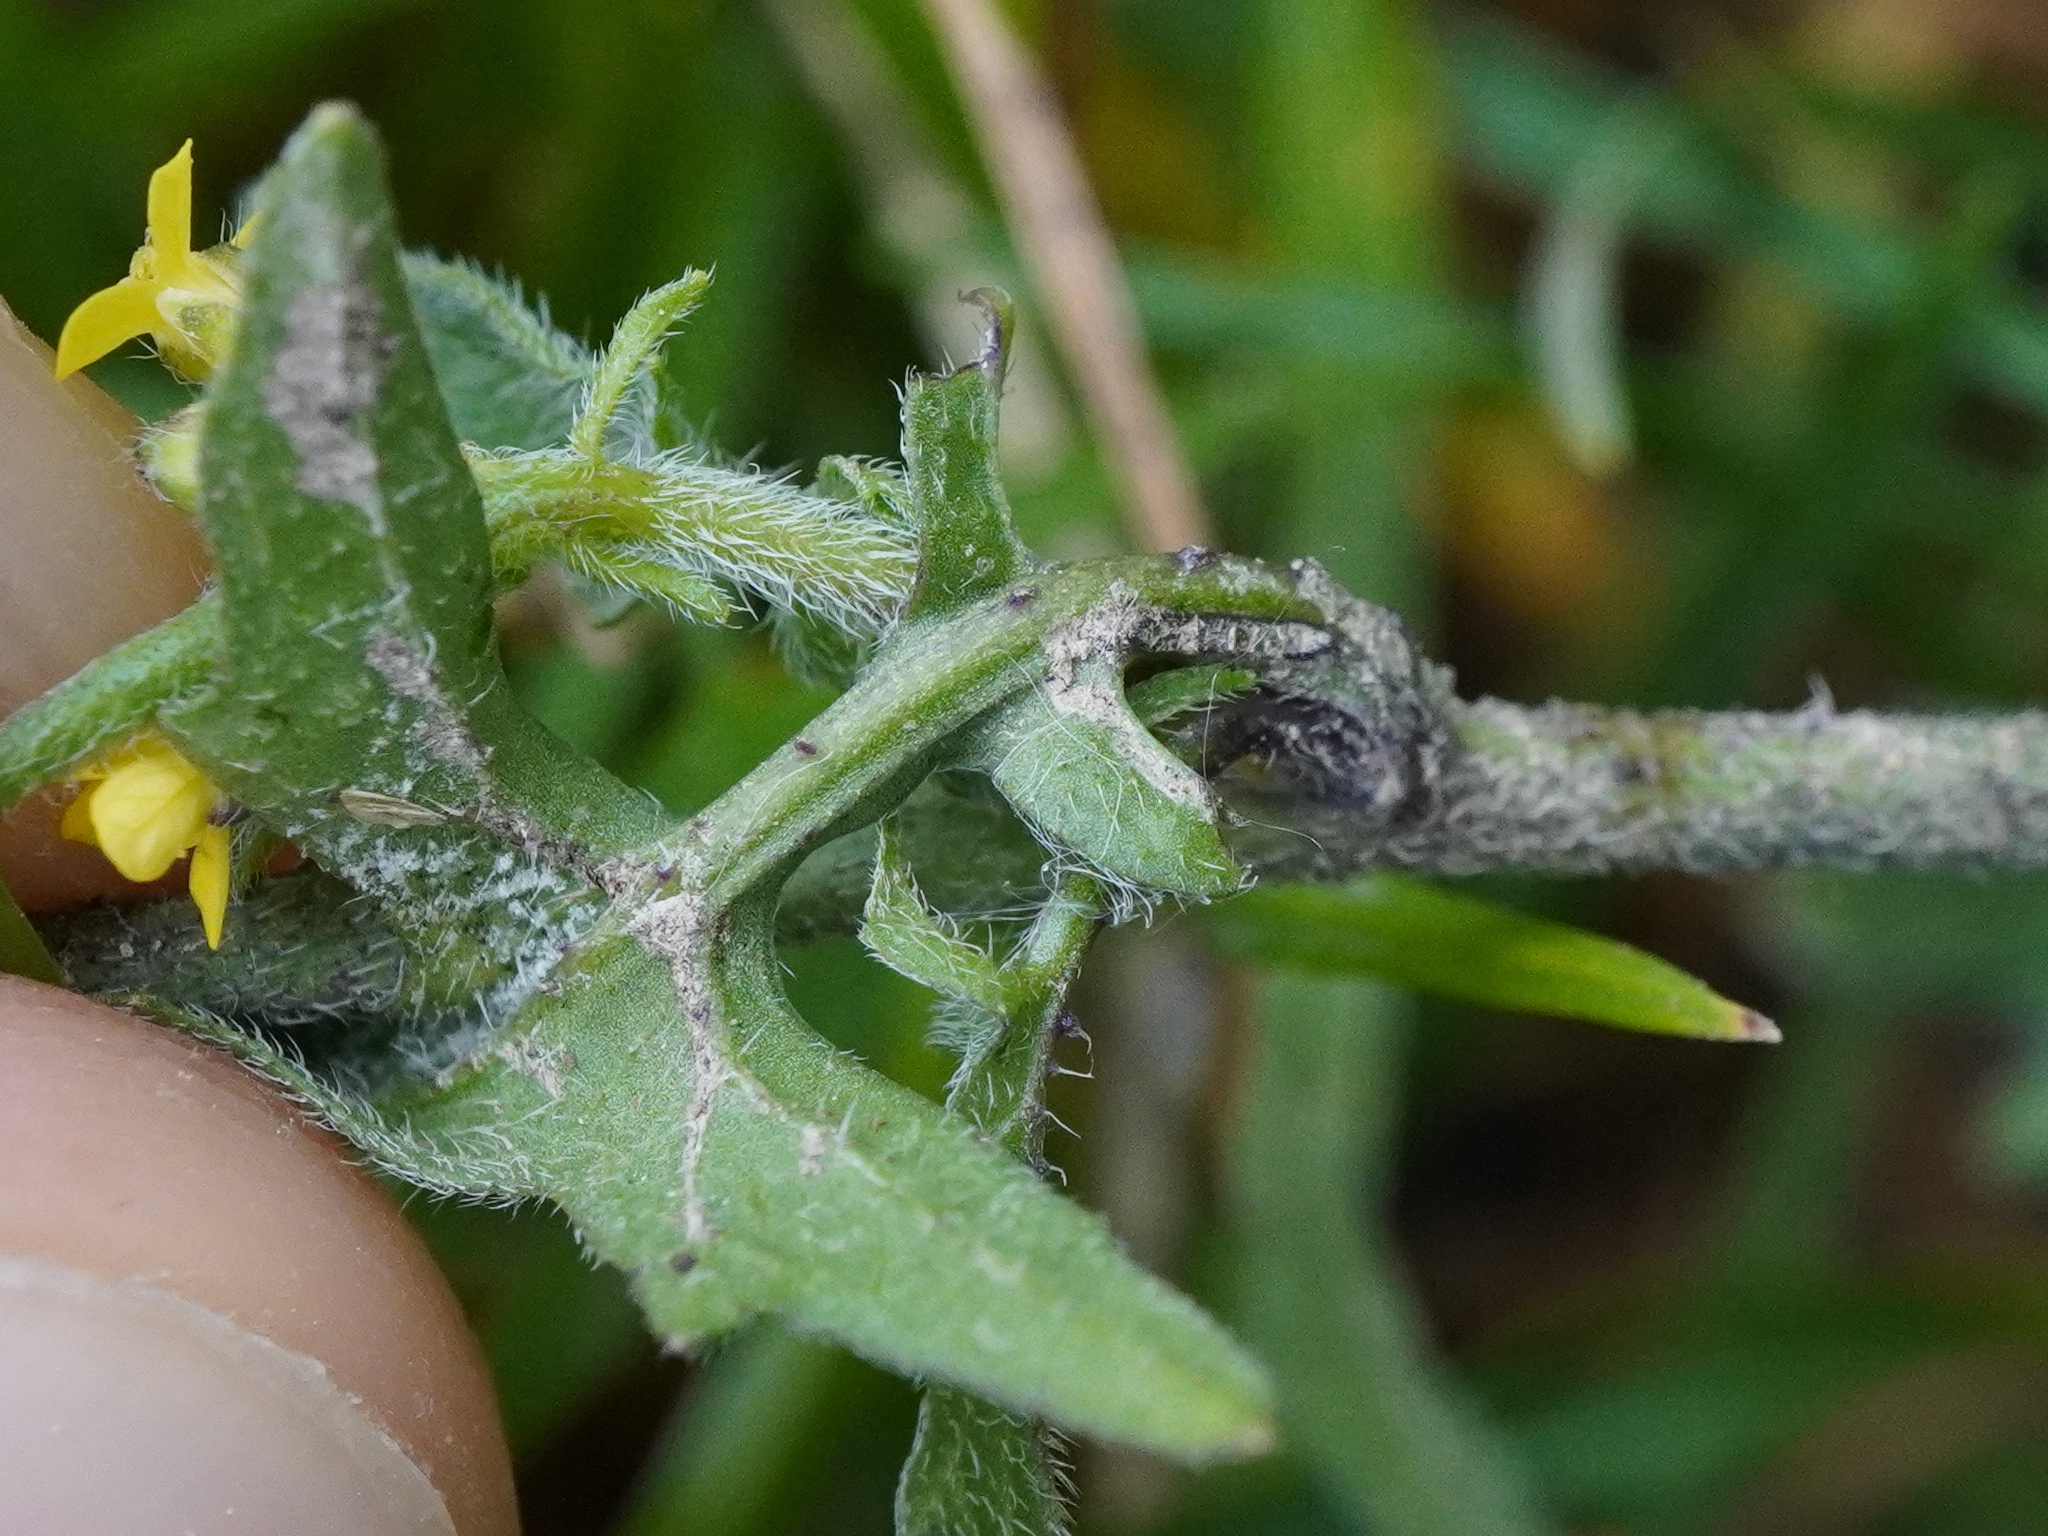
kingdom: Plantae
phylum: Tracheophyta
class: Magnoliopsida
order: Brassicales
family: Brassicaceae
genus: Sisymbrium
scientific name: Sisymbrium officinale
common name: Hedge mustard
